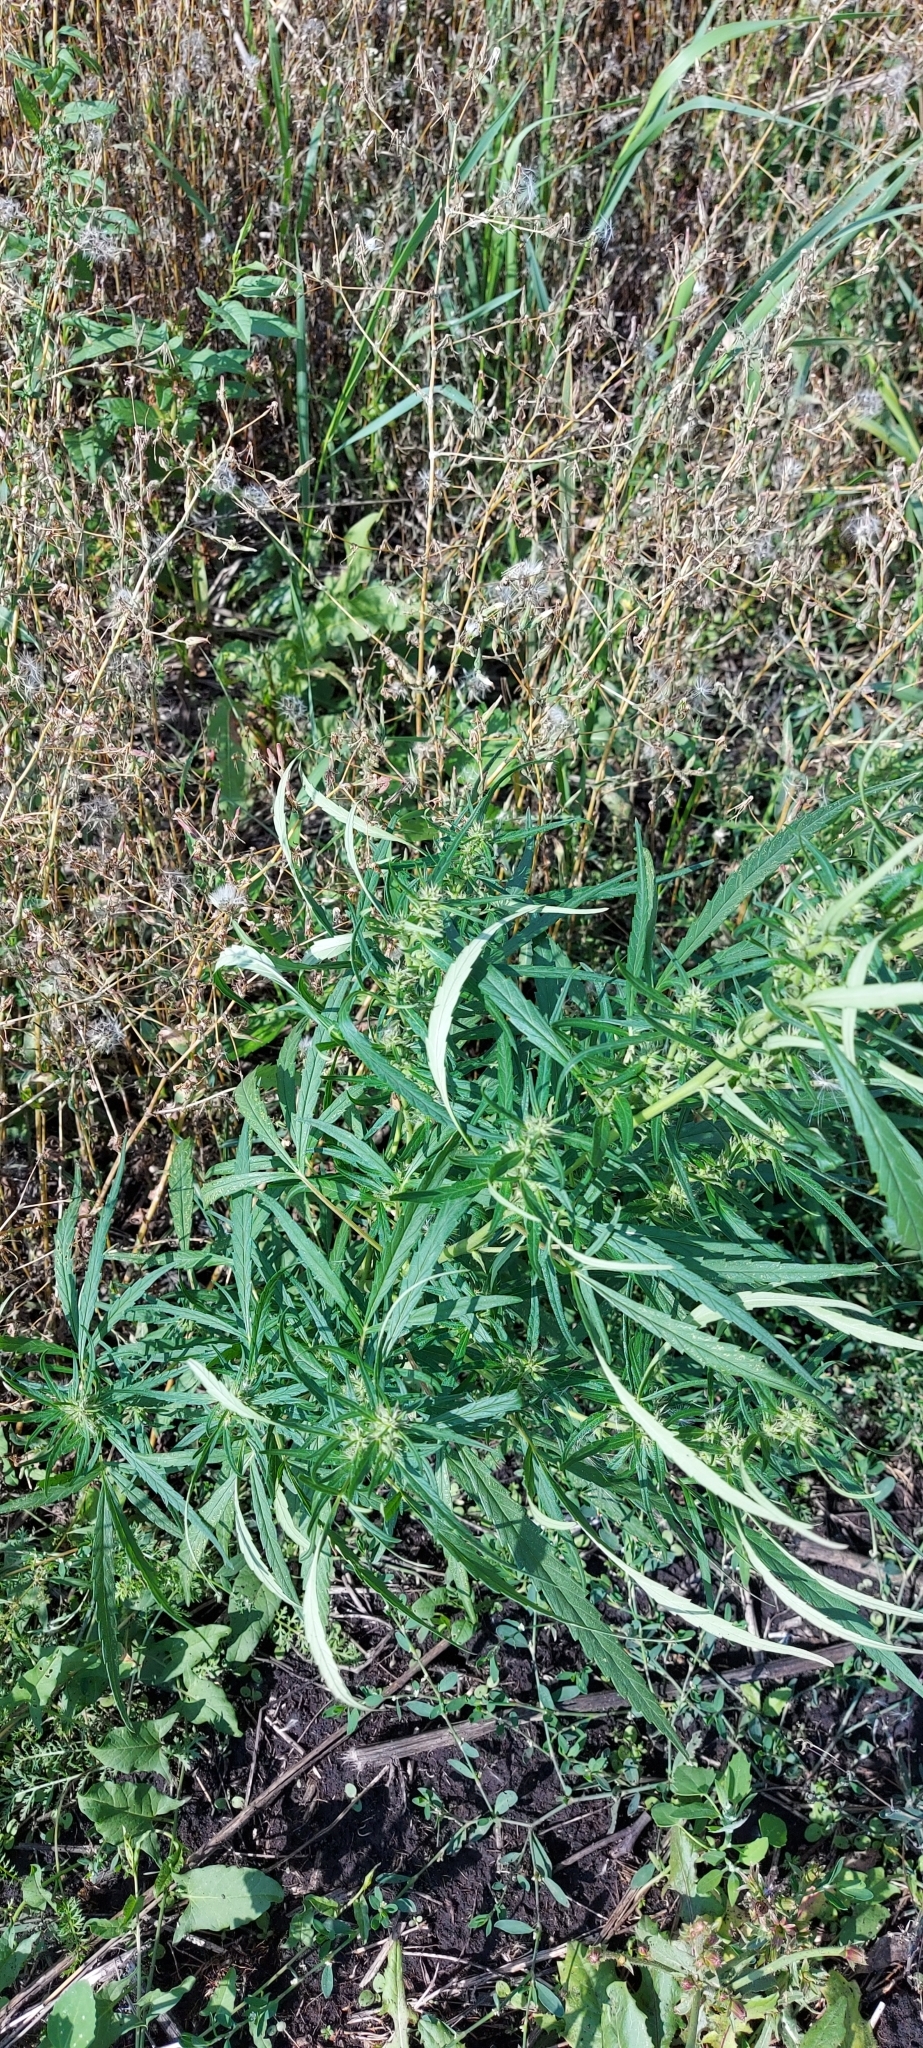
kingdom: Plantae
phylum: Tracheophyta
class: Magnoliopsida
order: Rosales
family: Cannabaceae
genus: Cannabis
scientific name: Cannabis sativa
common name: Hemp
